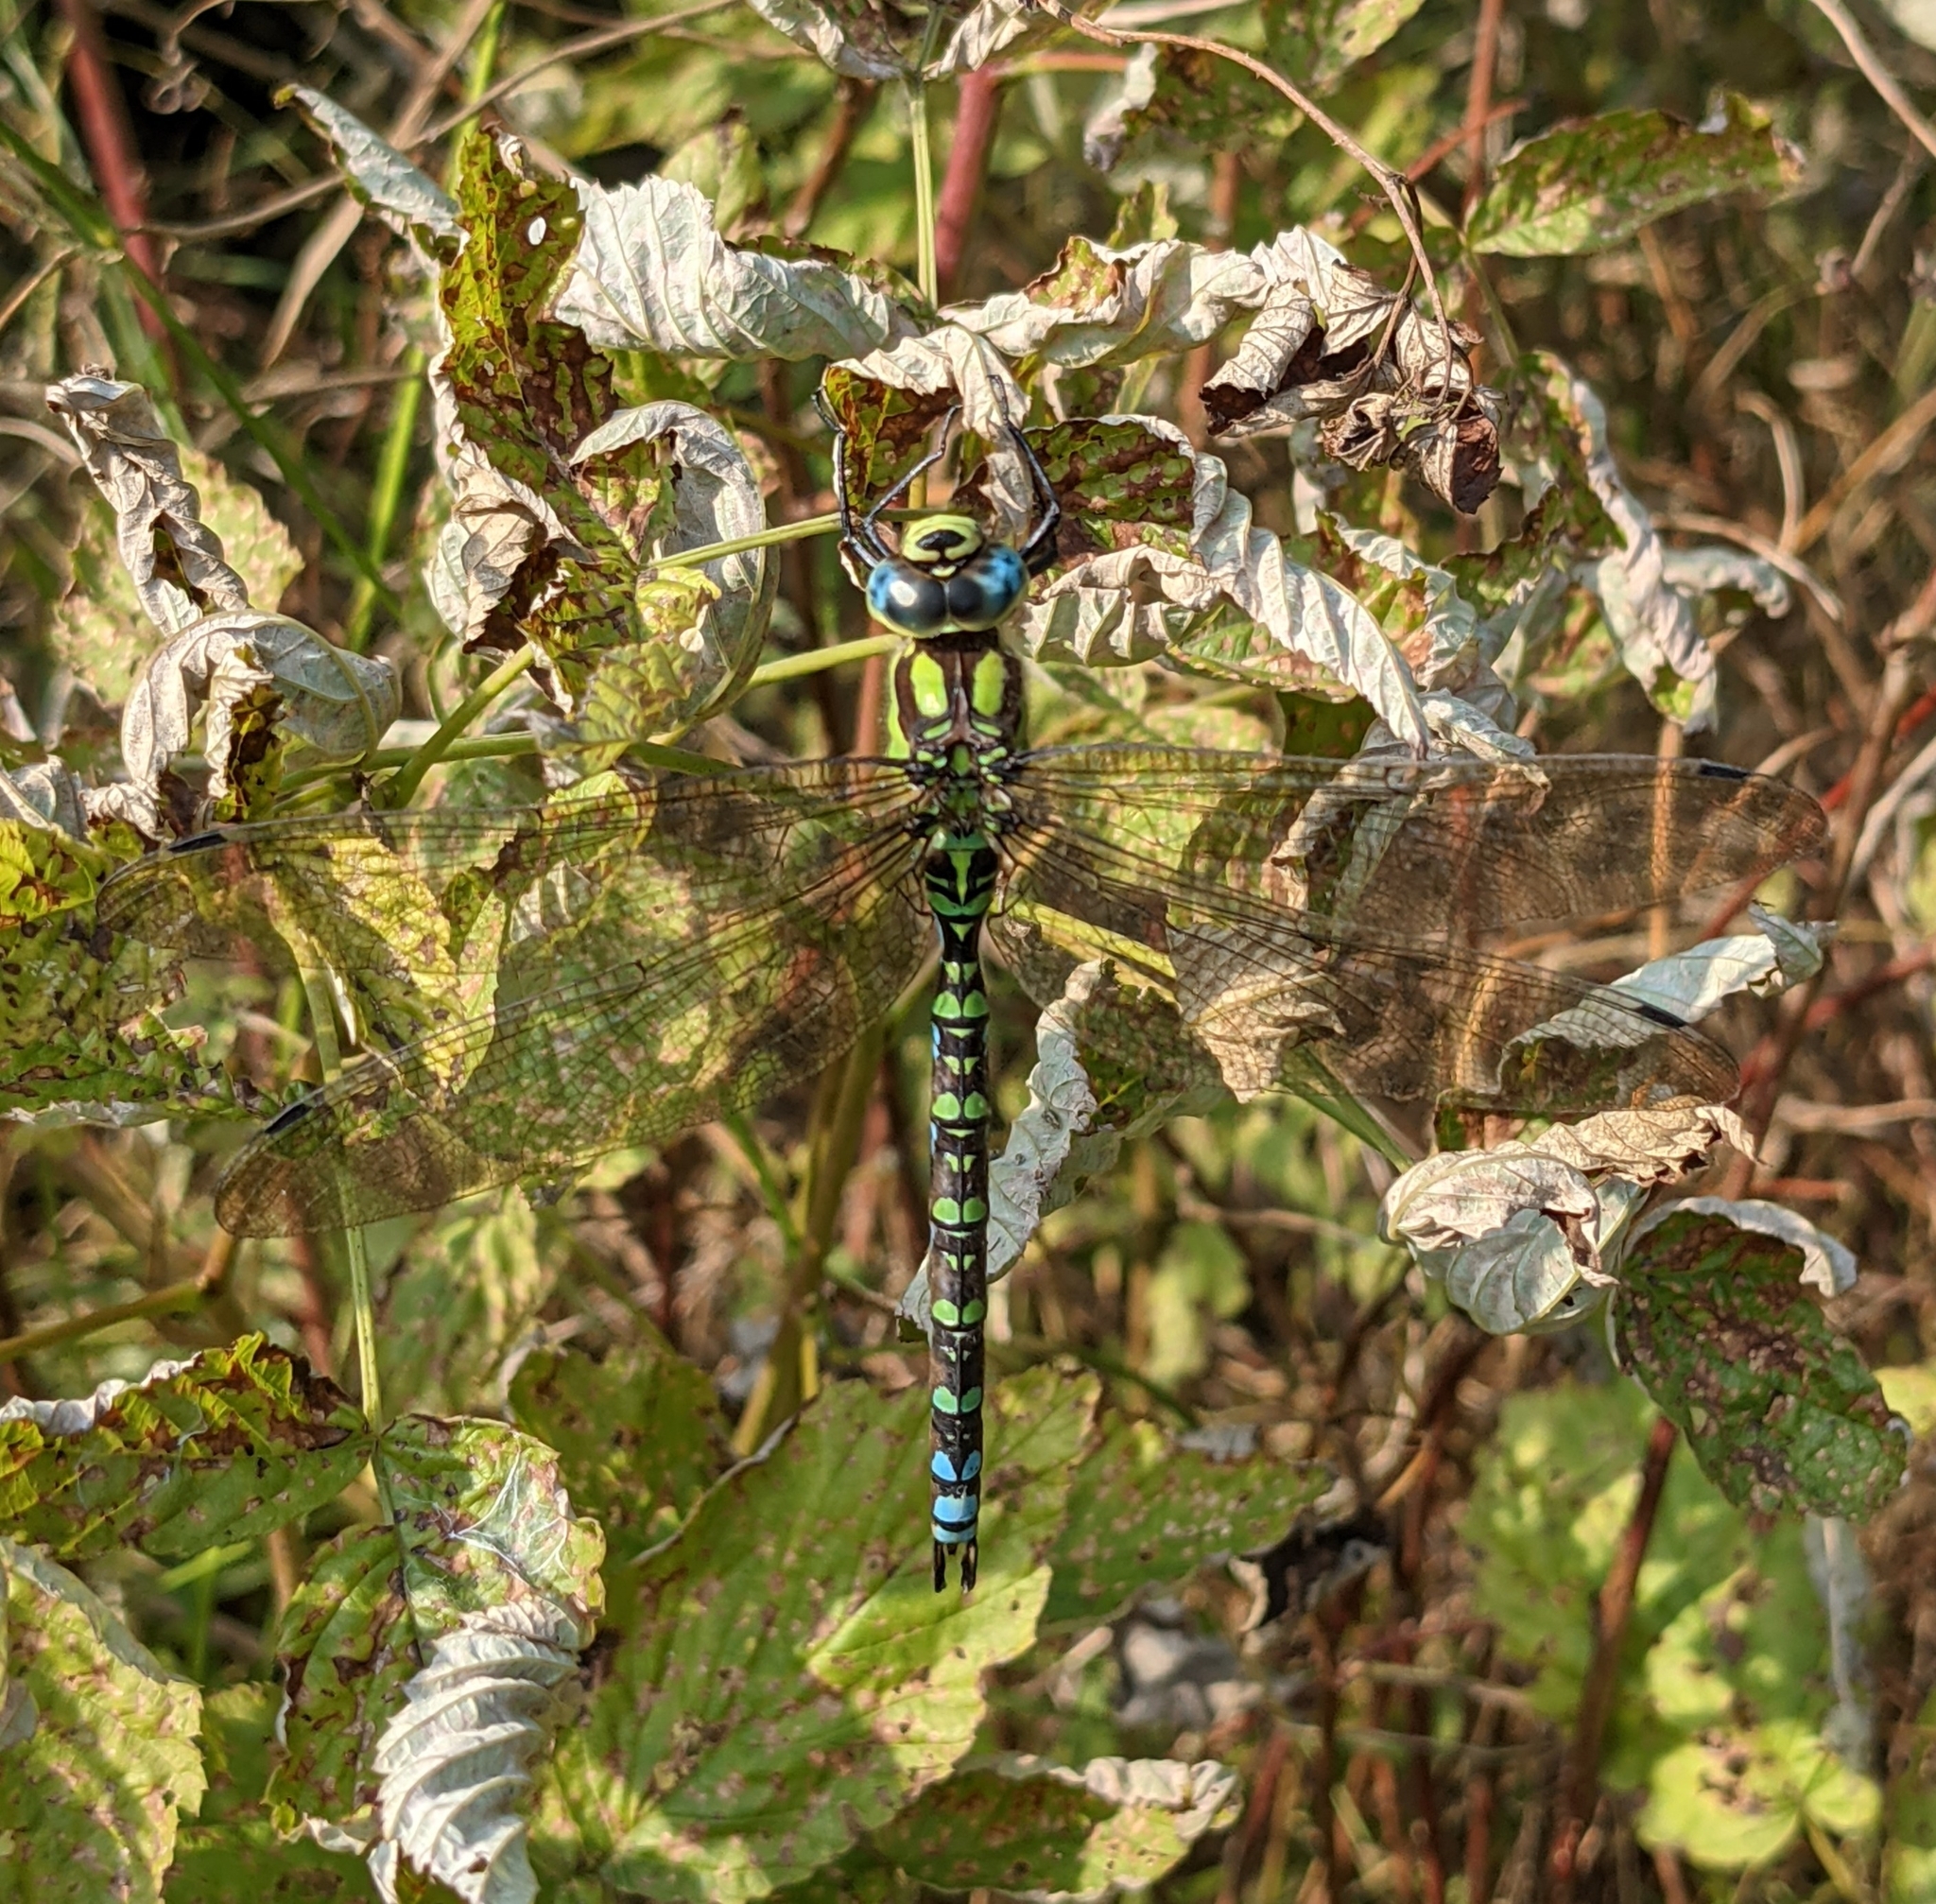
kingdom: Animalia
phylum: Arthropoda
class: Insecta
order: Odonata
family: Aeshnidae
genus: Aeshna
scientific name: Aeshna cyanea
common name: Southern hawker
